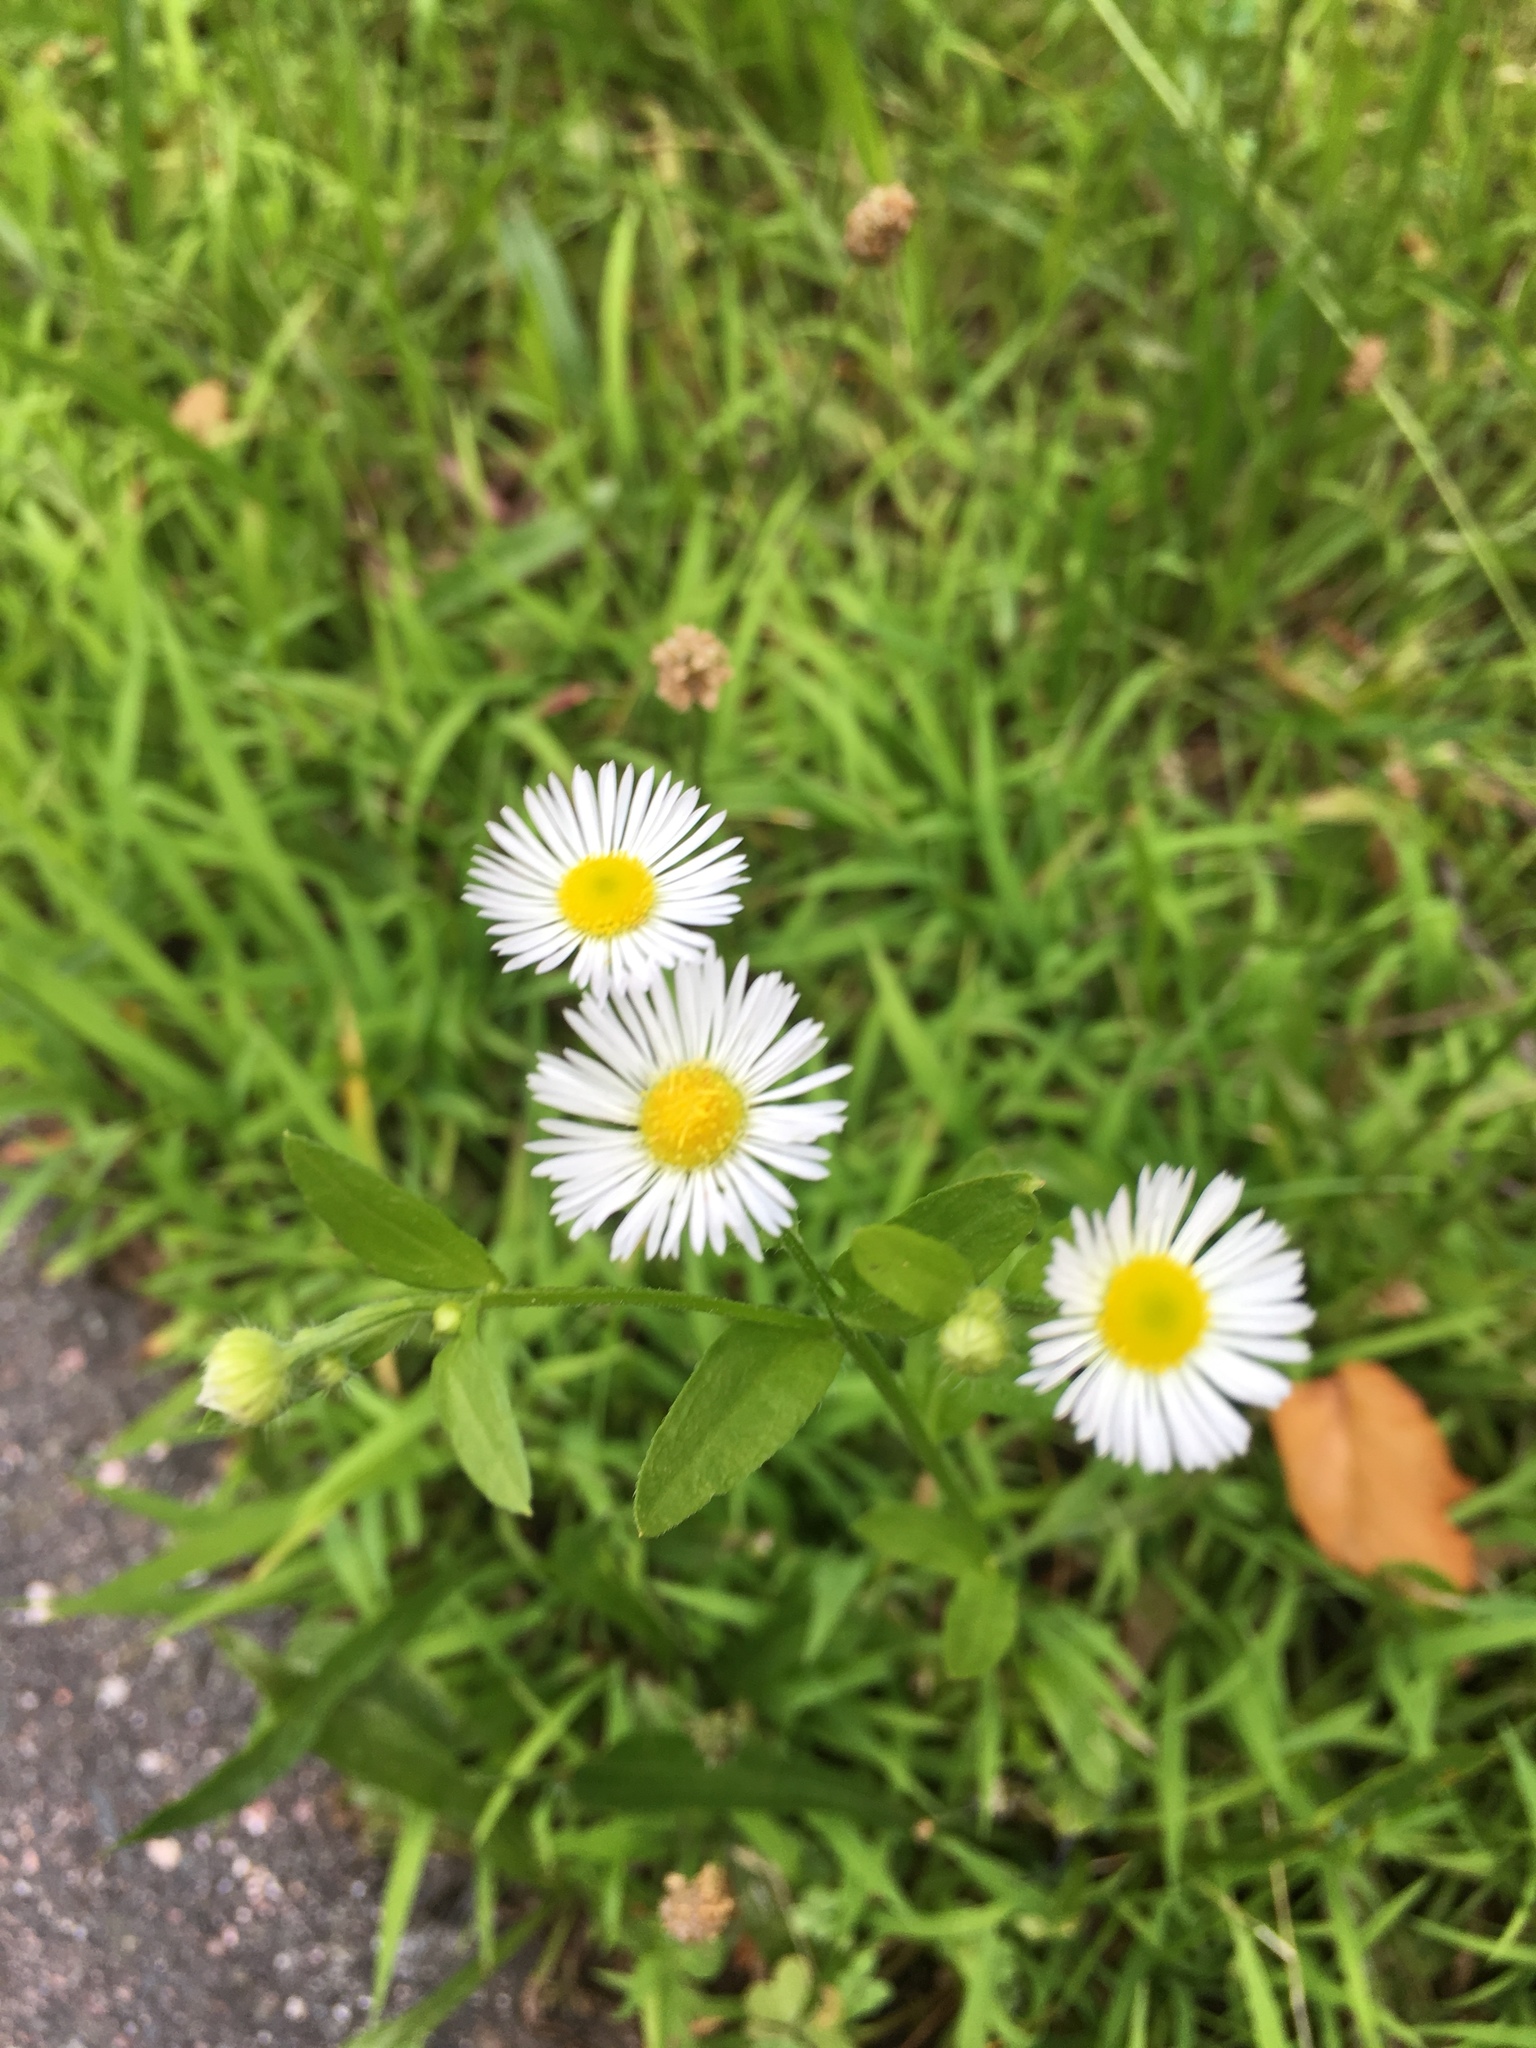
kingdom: Plantae
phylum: Tracheophyta
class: Magnoliopsida
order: Asterales
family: Asteraceae
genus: Erigeron
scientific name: Erigeron strigosus
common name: Common eastern fleabane
